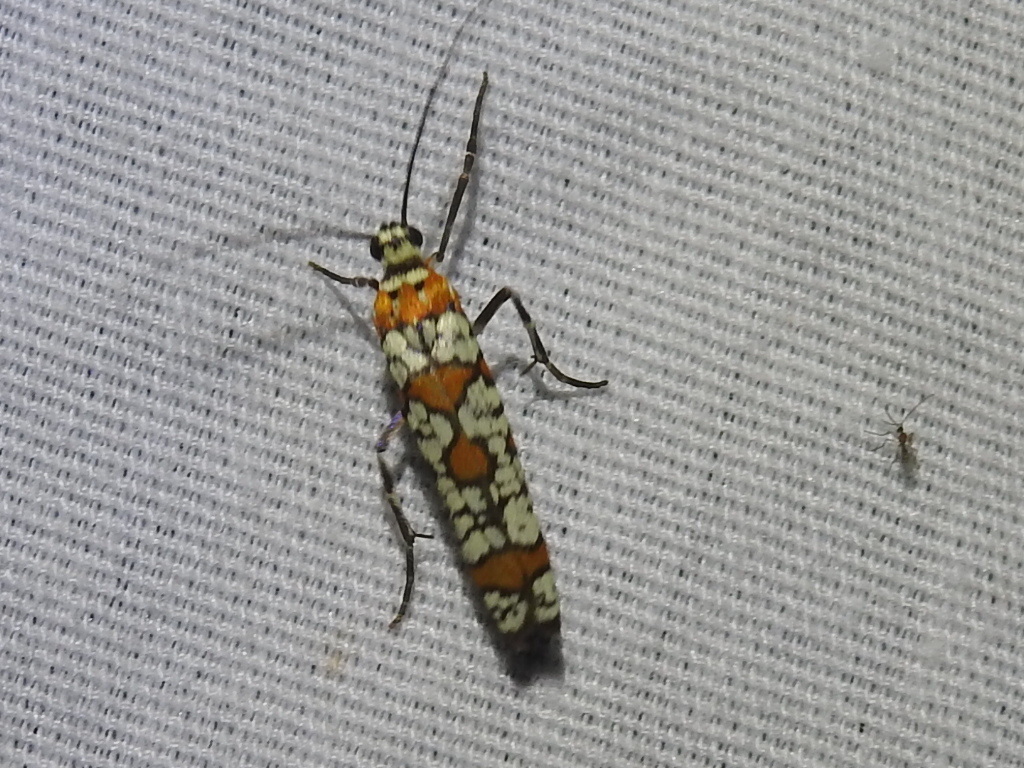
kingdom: Animalia
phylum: Arthropoda
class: Insecta
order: Lepidoptera
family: Attevidae
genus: Atteva
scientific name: Atteva punctella
